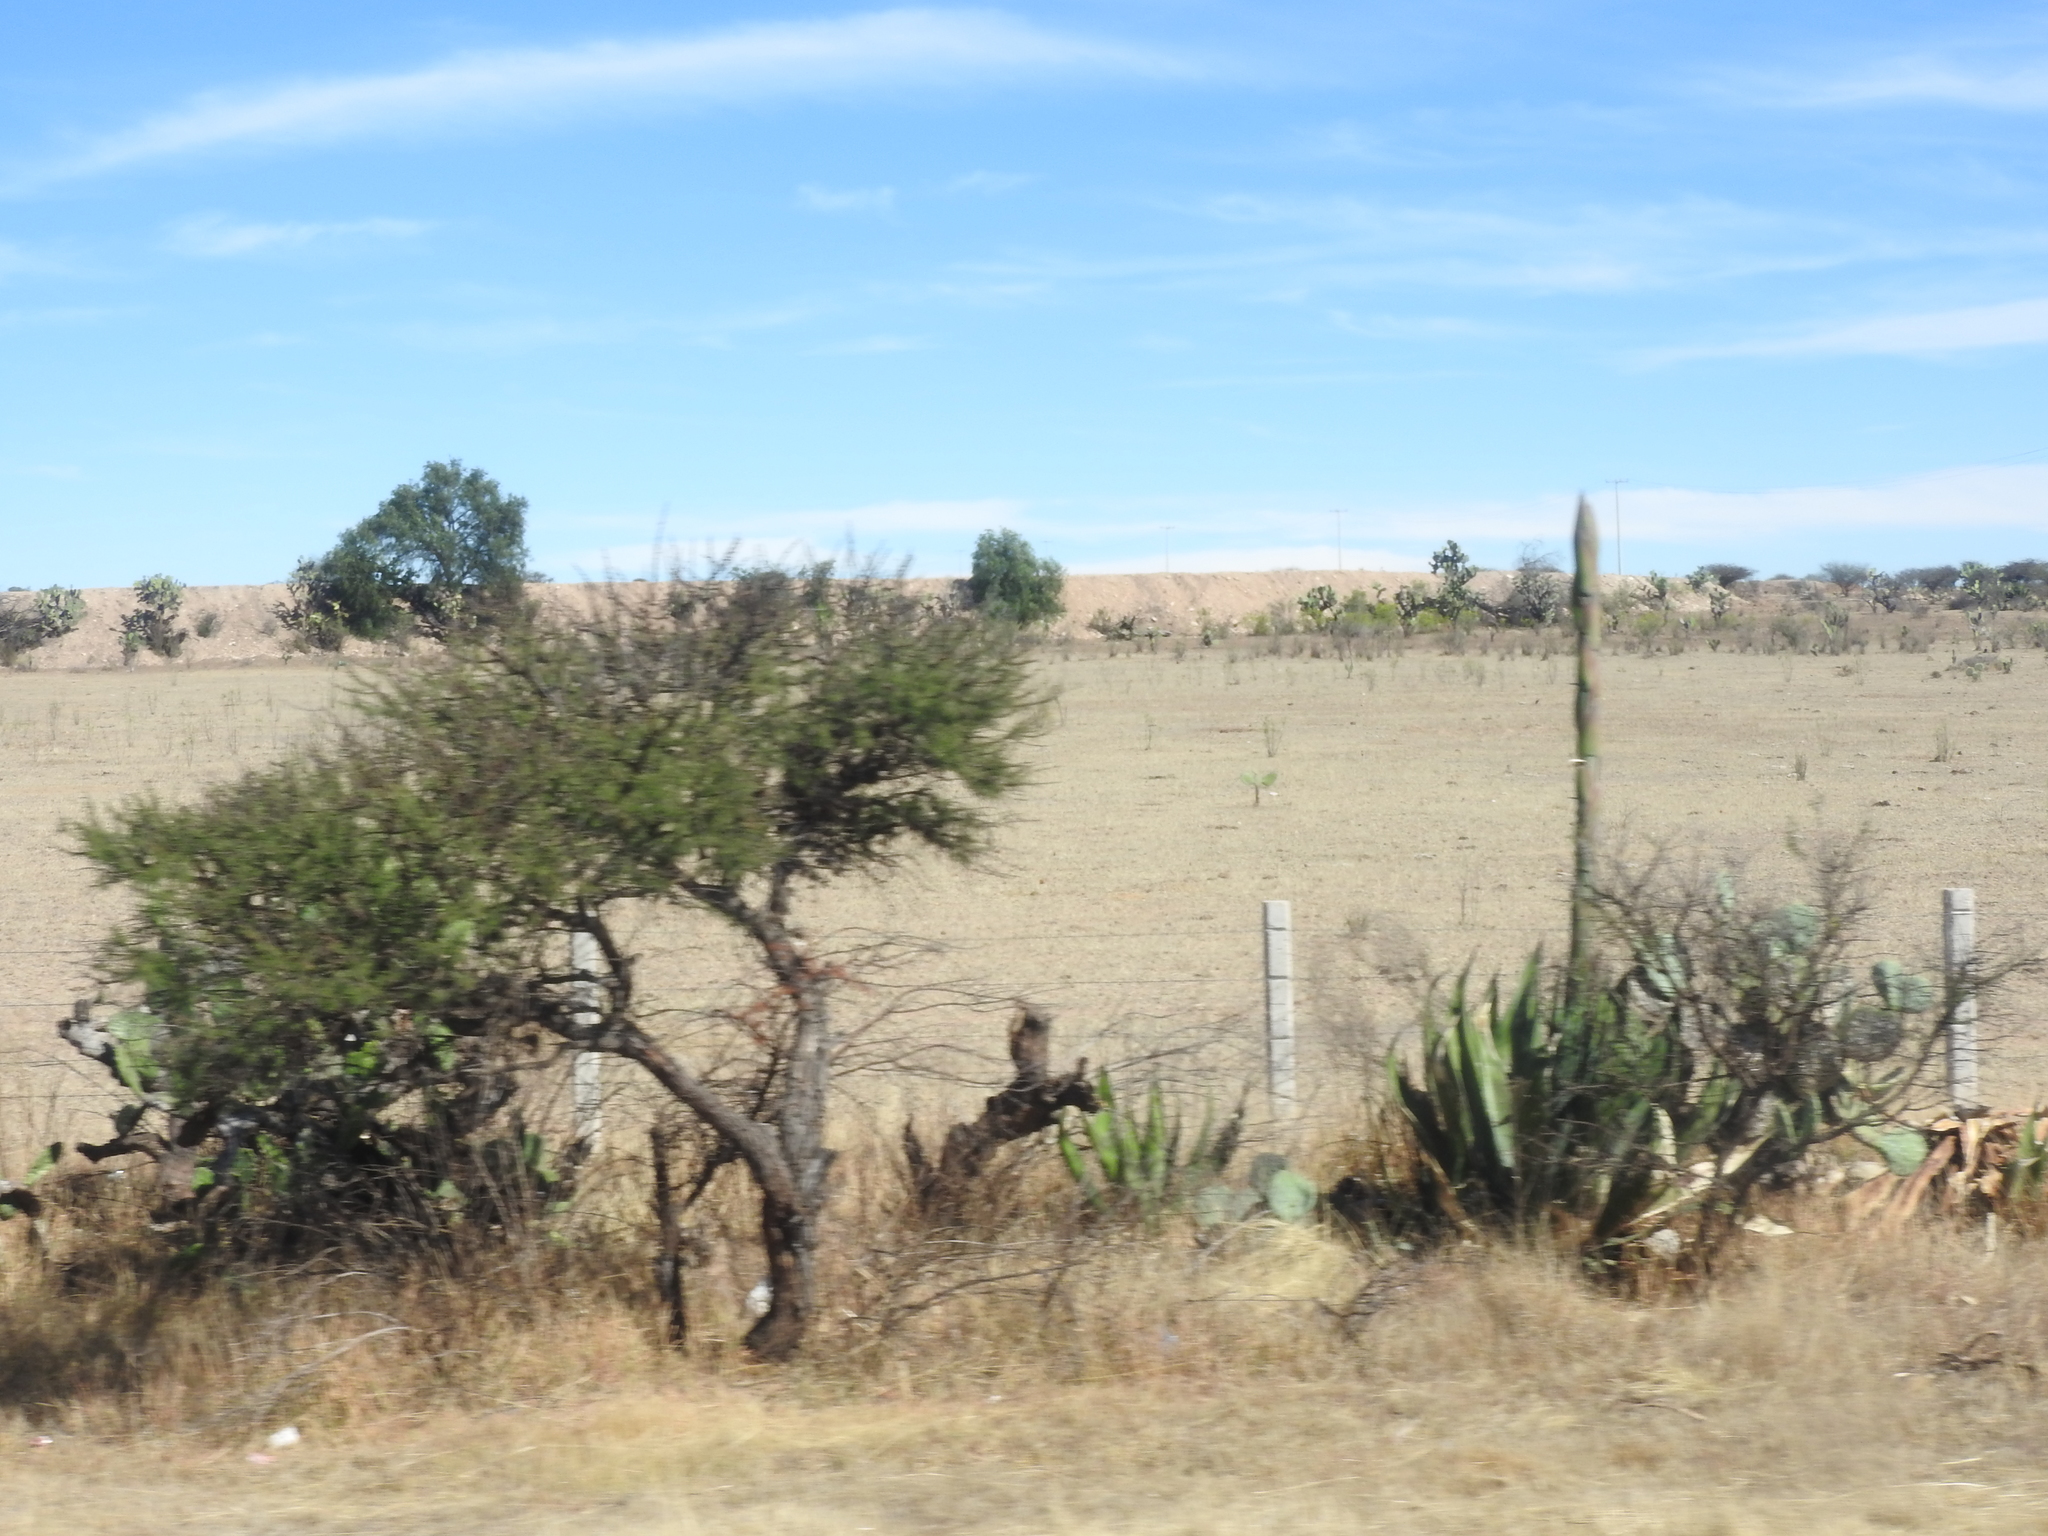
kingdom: Plantae
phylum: Tracheophyta
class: Liliopsida
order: Asparagales
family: Asparagaceae
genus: Agave
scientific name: Agave salmiana
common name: Pulque agave
